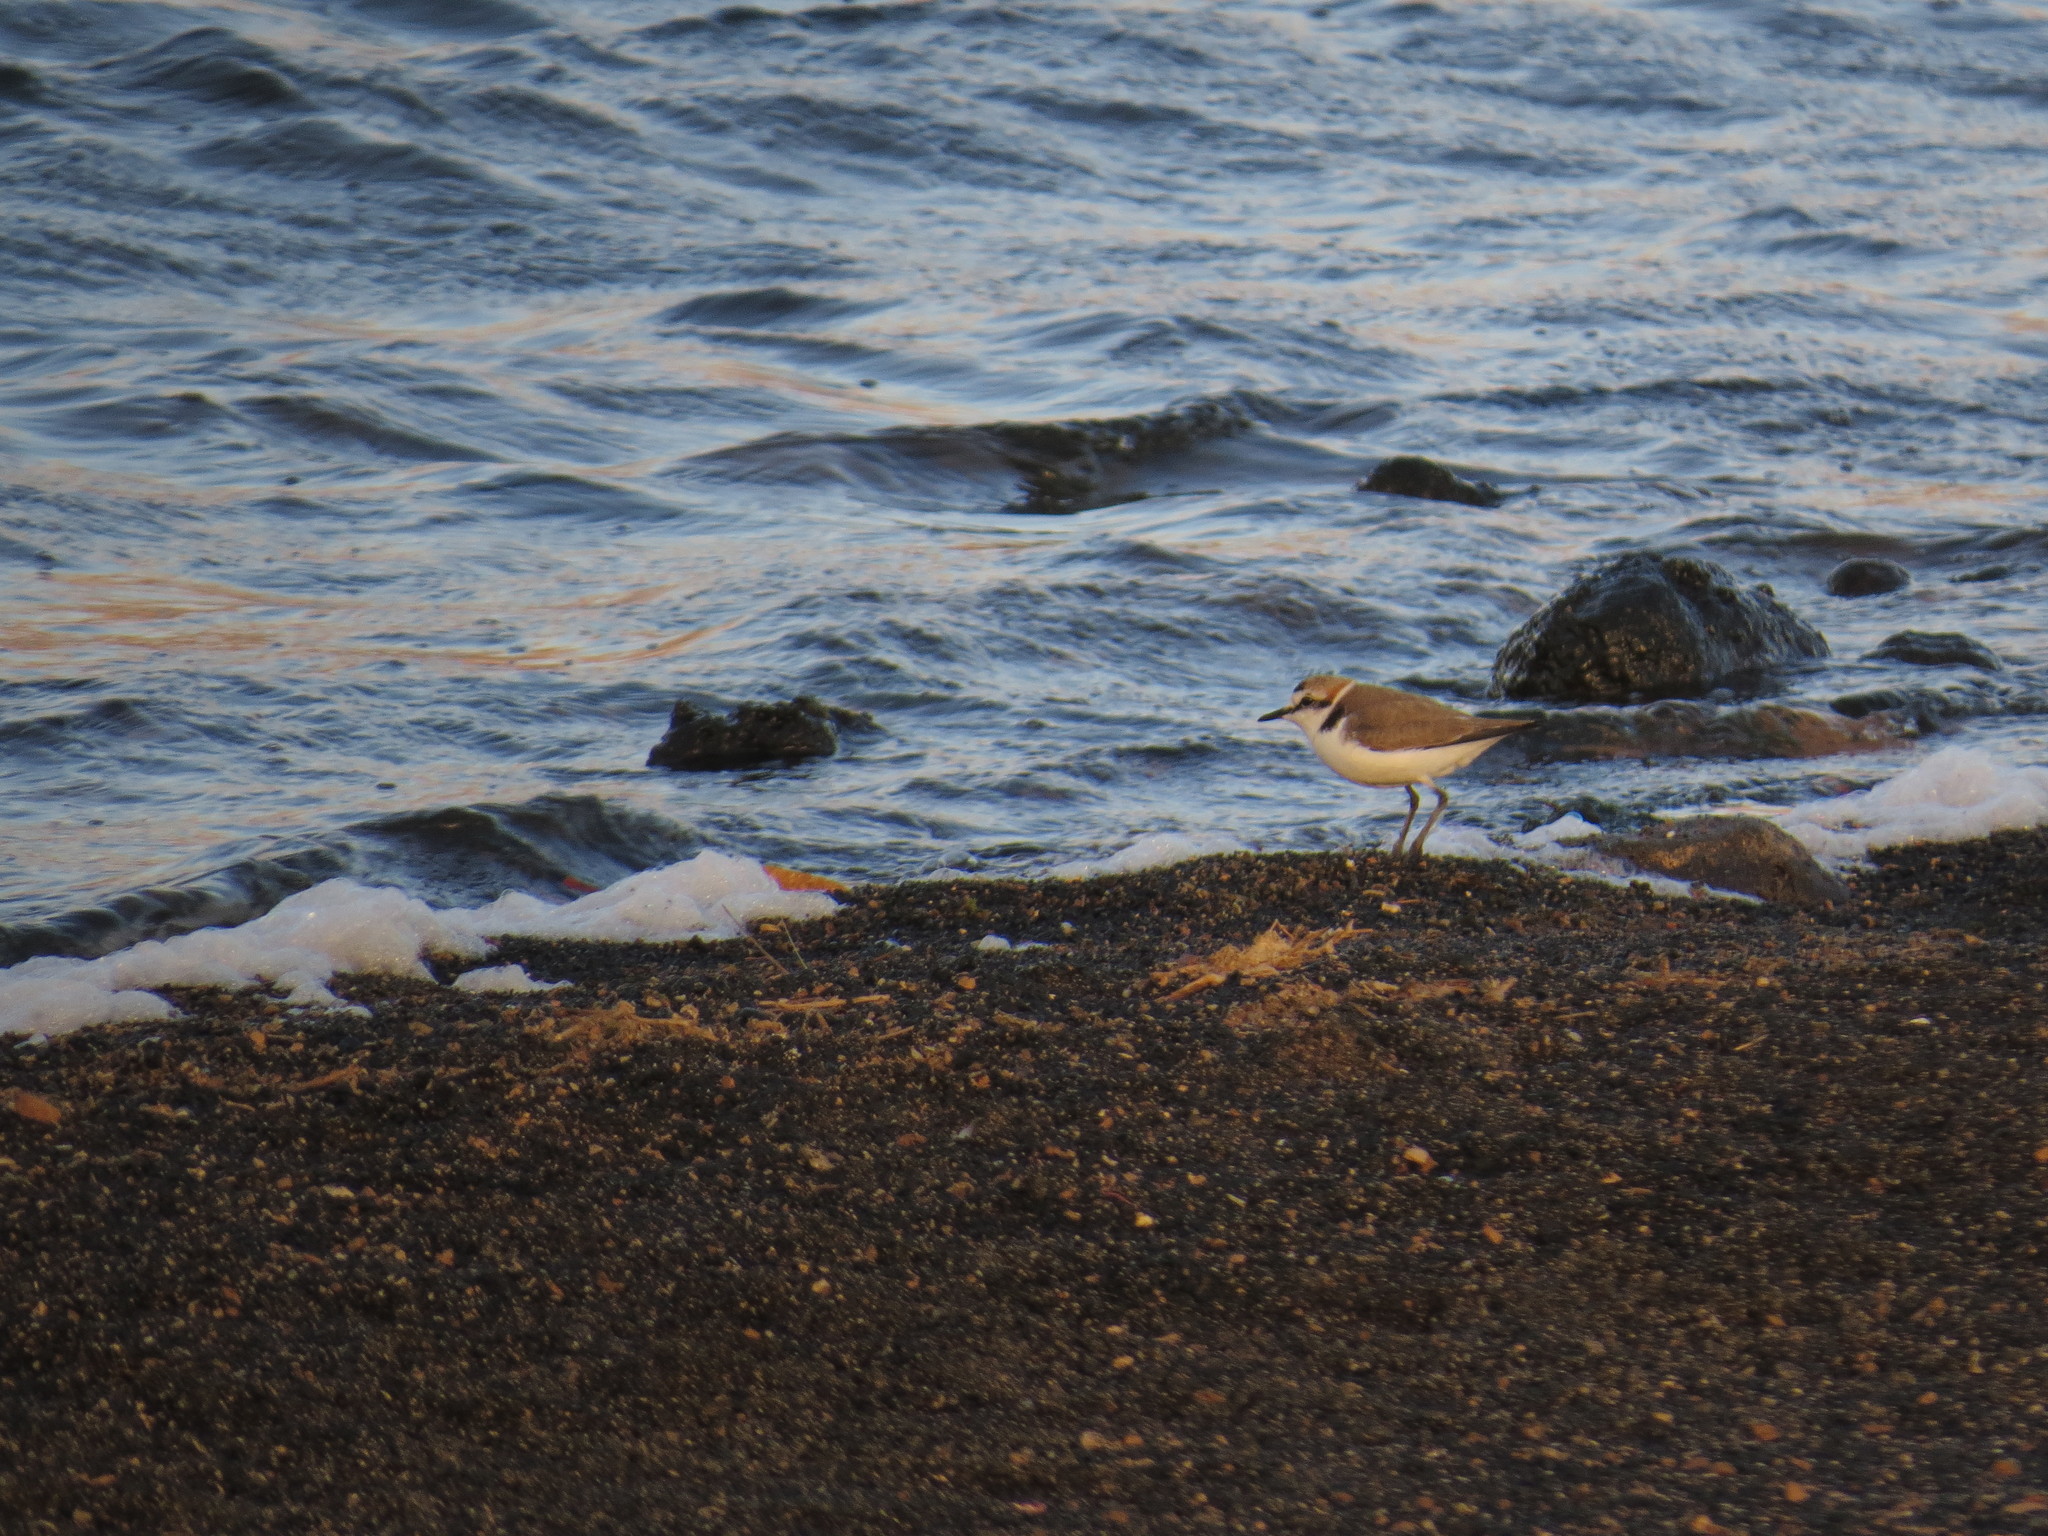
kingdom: Animalia
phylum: Chordata
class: Aves
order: Charadriiformes
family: Charadriidae
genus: Charadrius
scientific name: Charadrius alexandrinus
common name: Kentish plover
